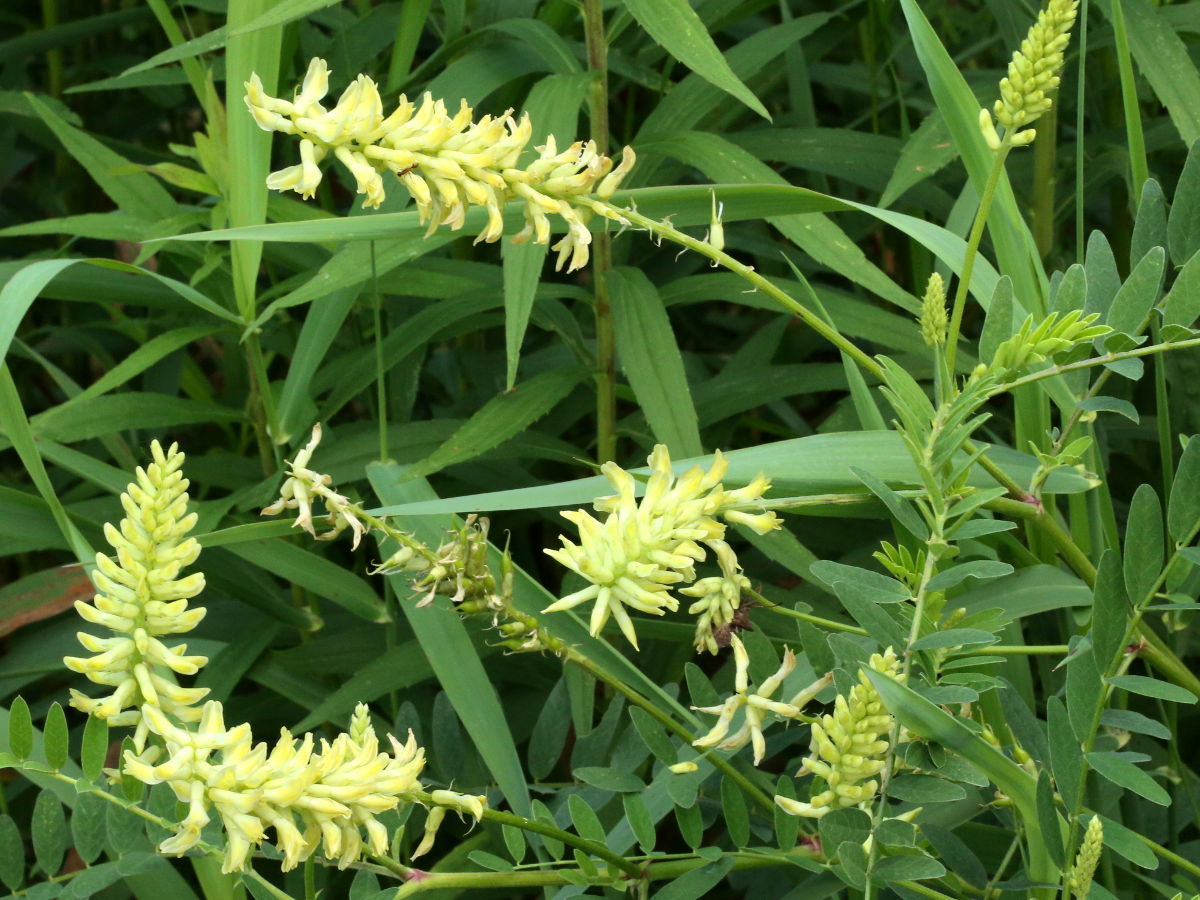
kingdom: Plantae
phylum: Tracheophyta
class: Magnoliopsida
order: Fabales
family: Fabaceae
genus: Astragalus
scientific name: Astragalus canadensis
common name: Canada milk-vetch
